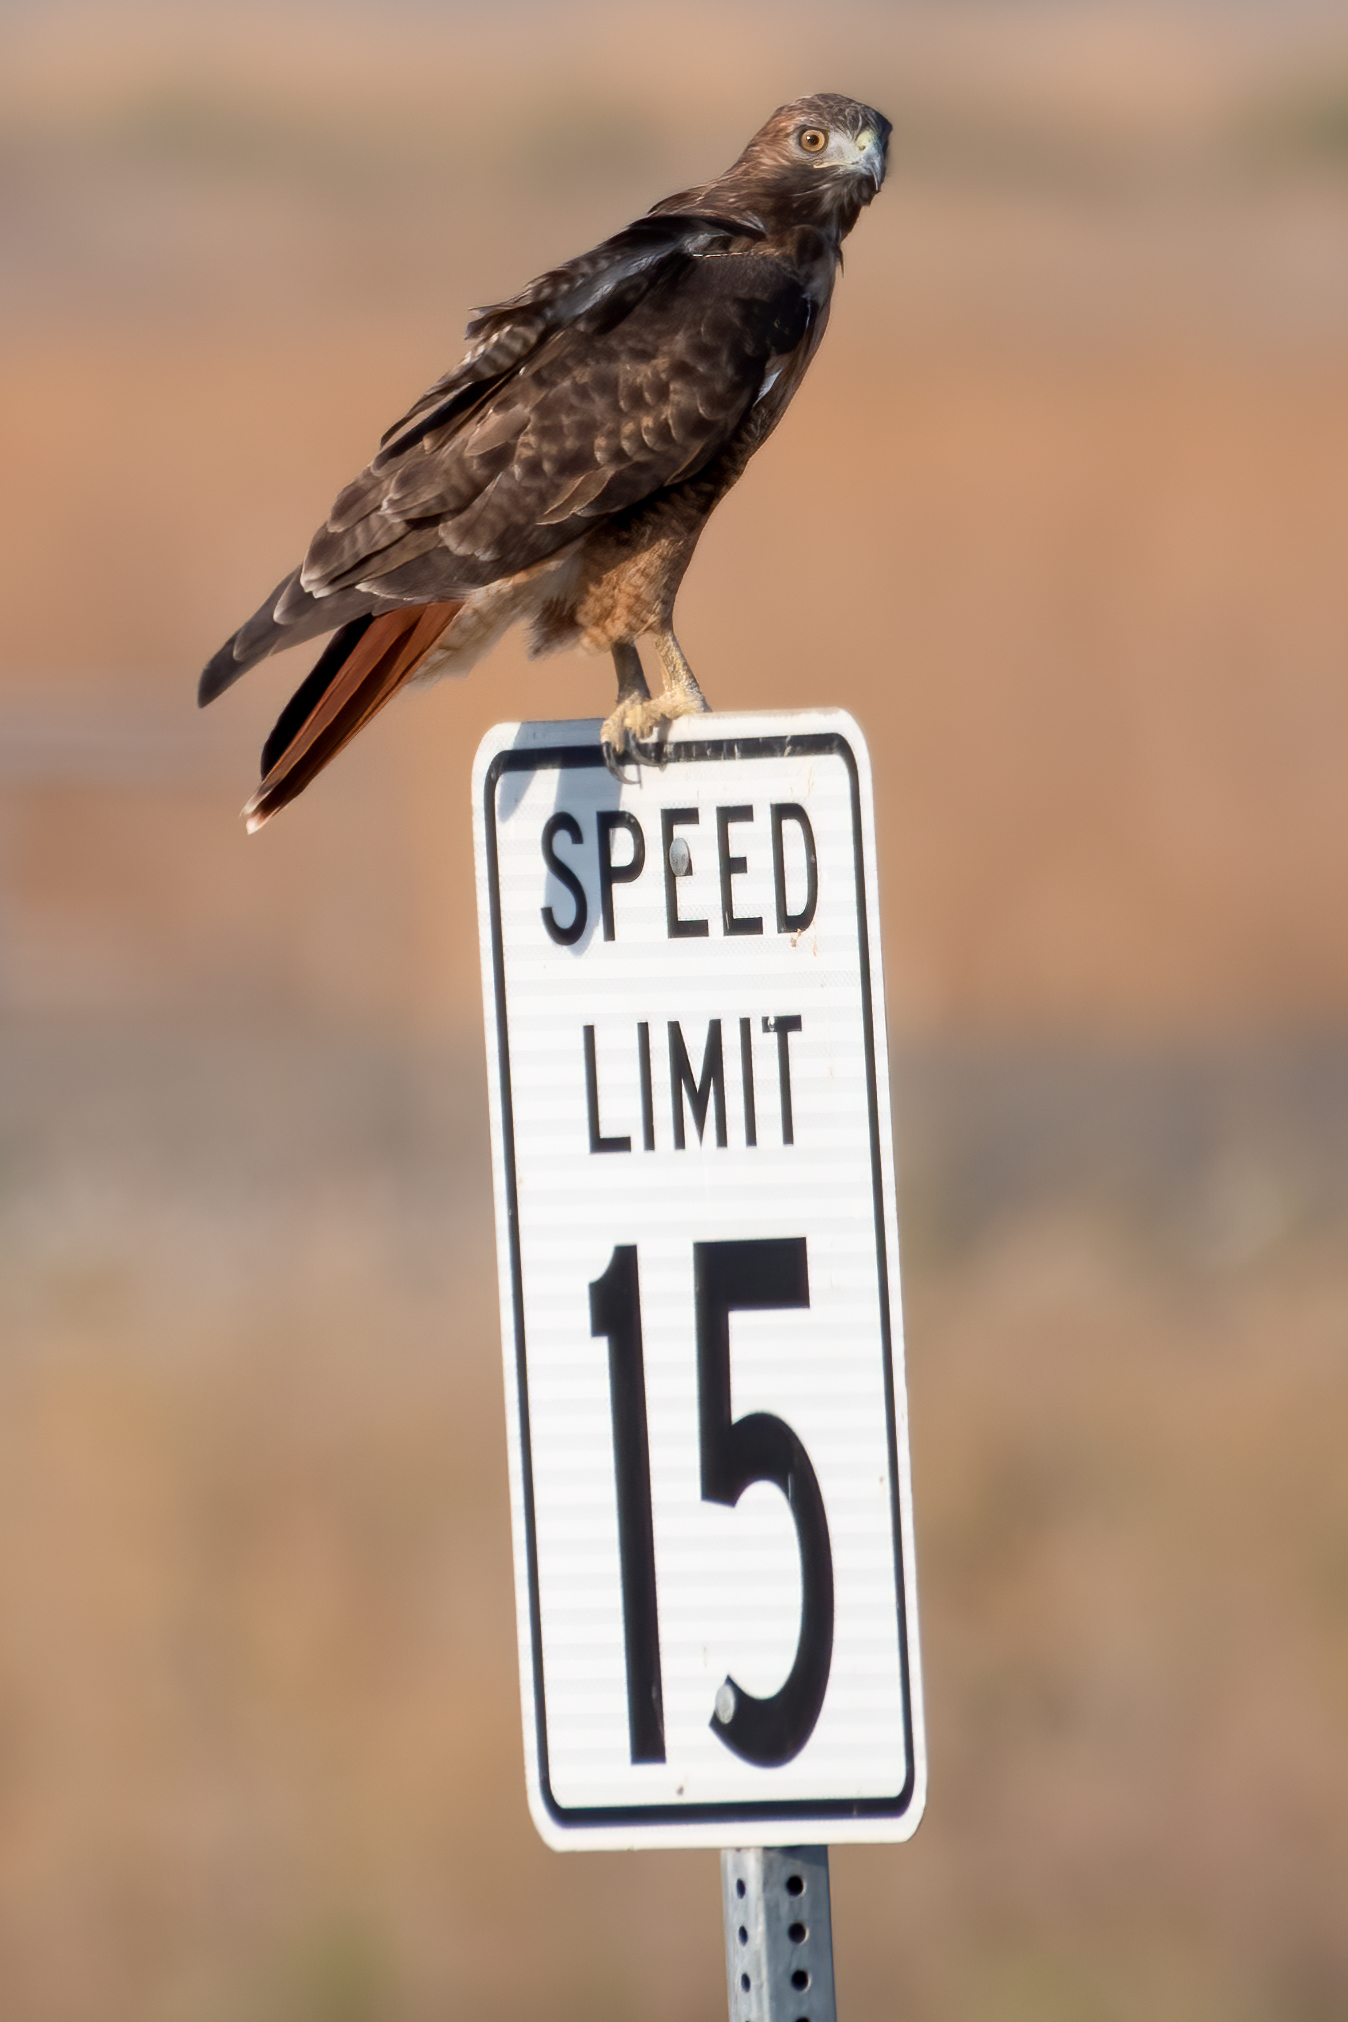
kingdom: Animalia
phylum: Chordata
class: Aves
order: Accipitriformes
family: Accipitridae
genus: Buteo
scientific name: Buteo jamaicensis
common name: Red-tailed hawk
